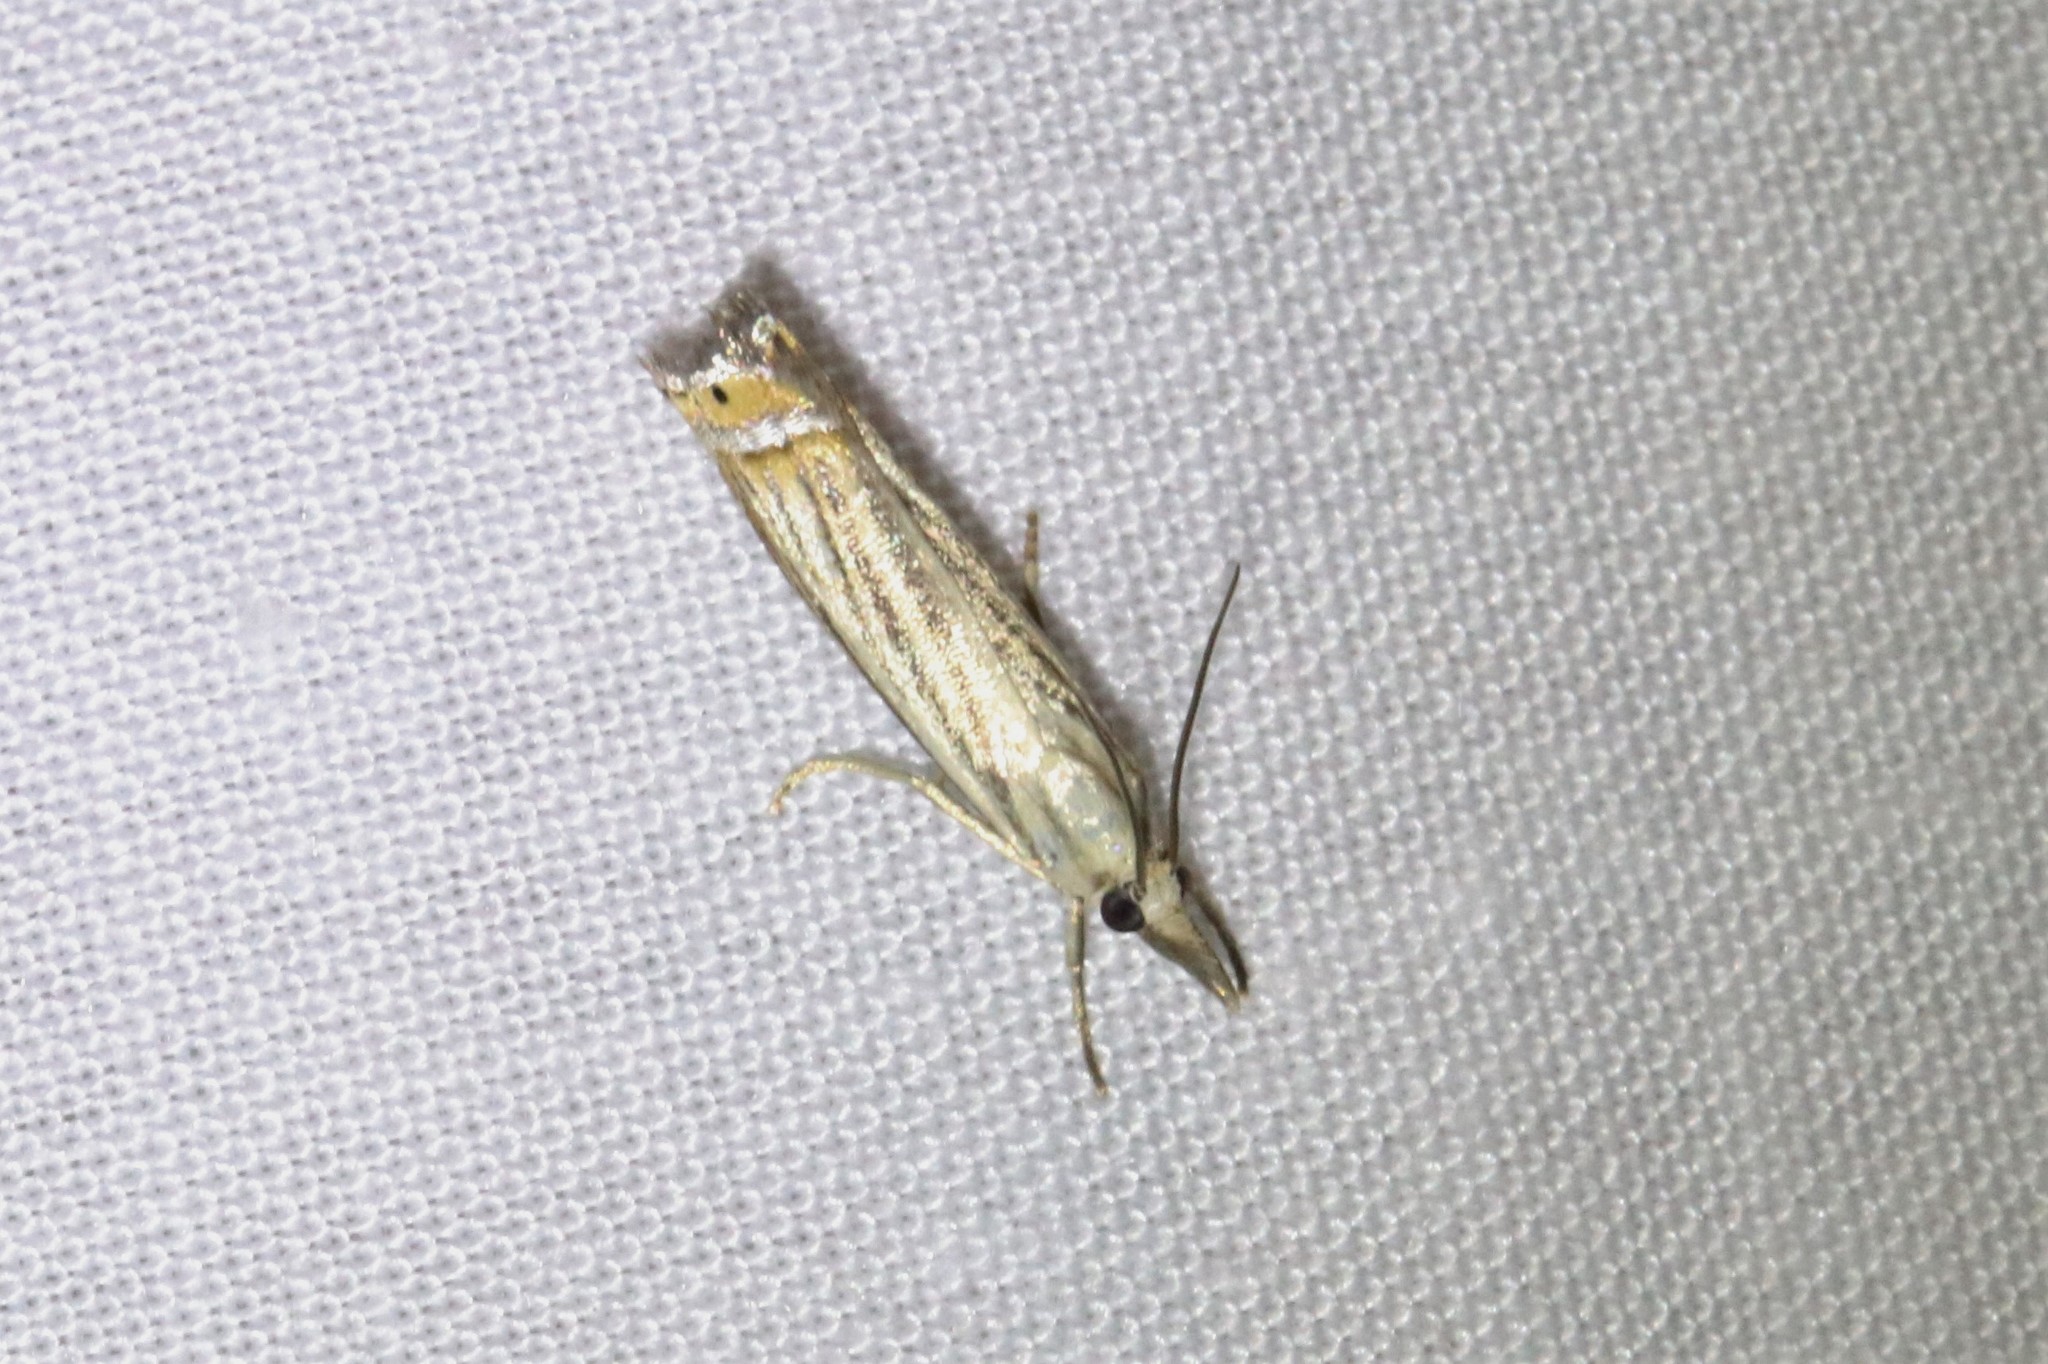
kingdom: Animalia
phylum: Arthropoda
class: Insecta
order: Lepidoptera
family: Crambidae
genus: Chrysoteuchia
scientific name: Chrysoteuchia topiarius
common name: Topiary grass-veneer
